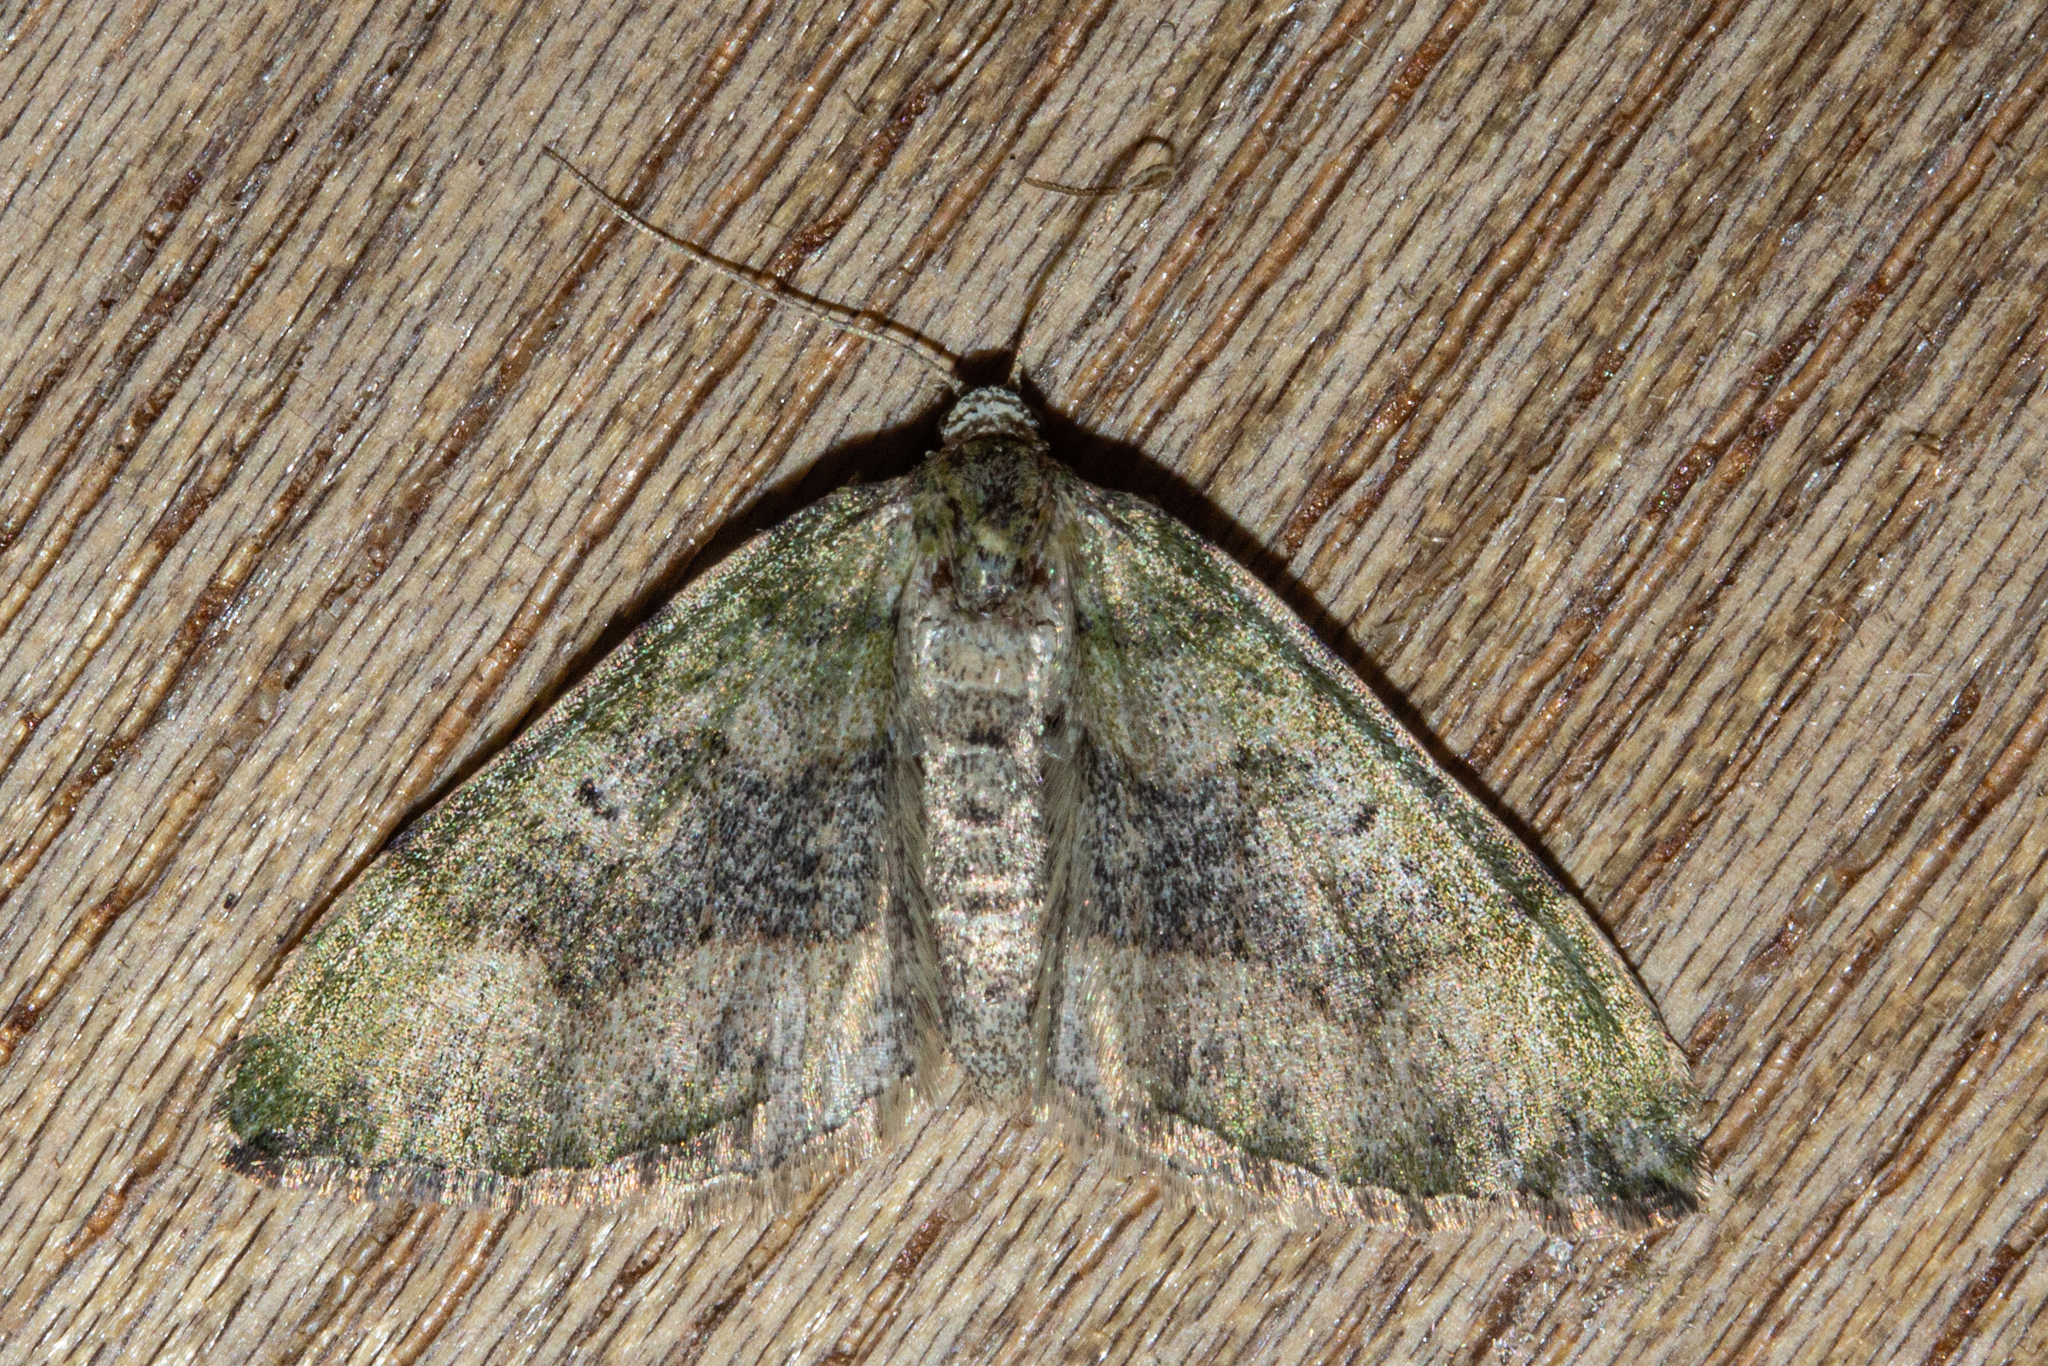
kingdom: Animalia
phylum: Arthropoda
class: Insecta
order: Lepidoptera
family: Geometridae
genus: Epyaxa
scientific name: Epyaxa rosearia
